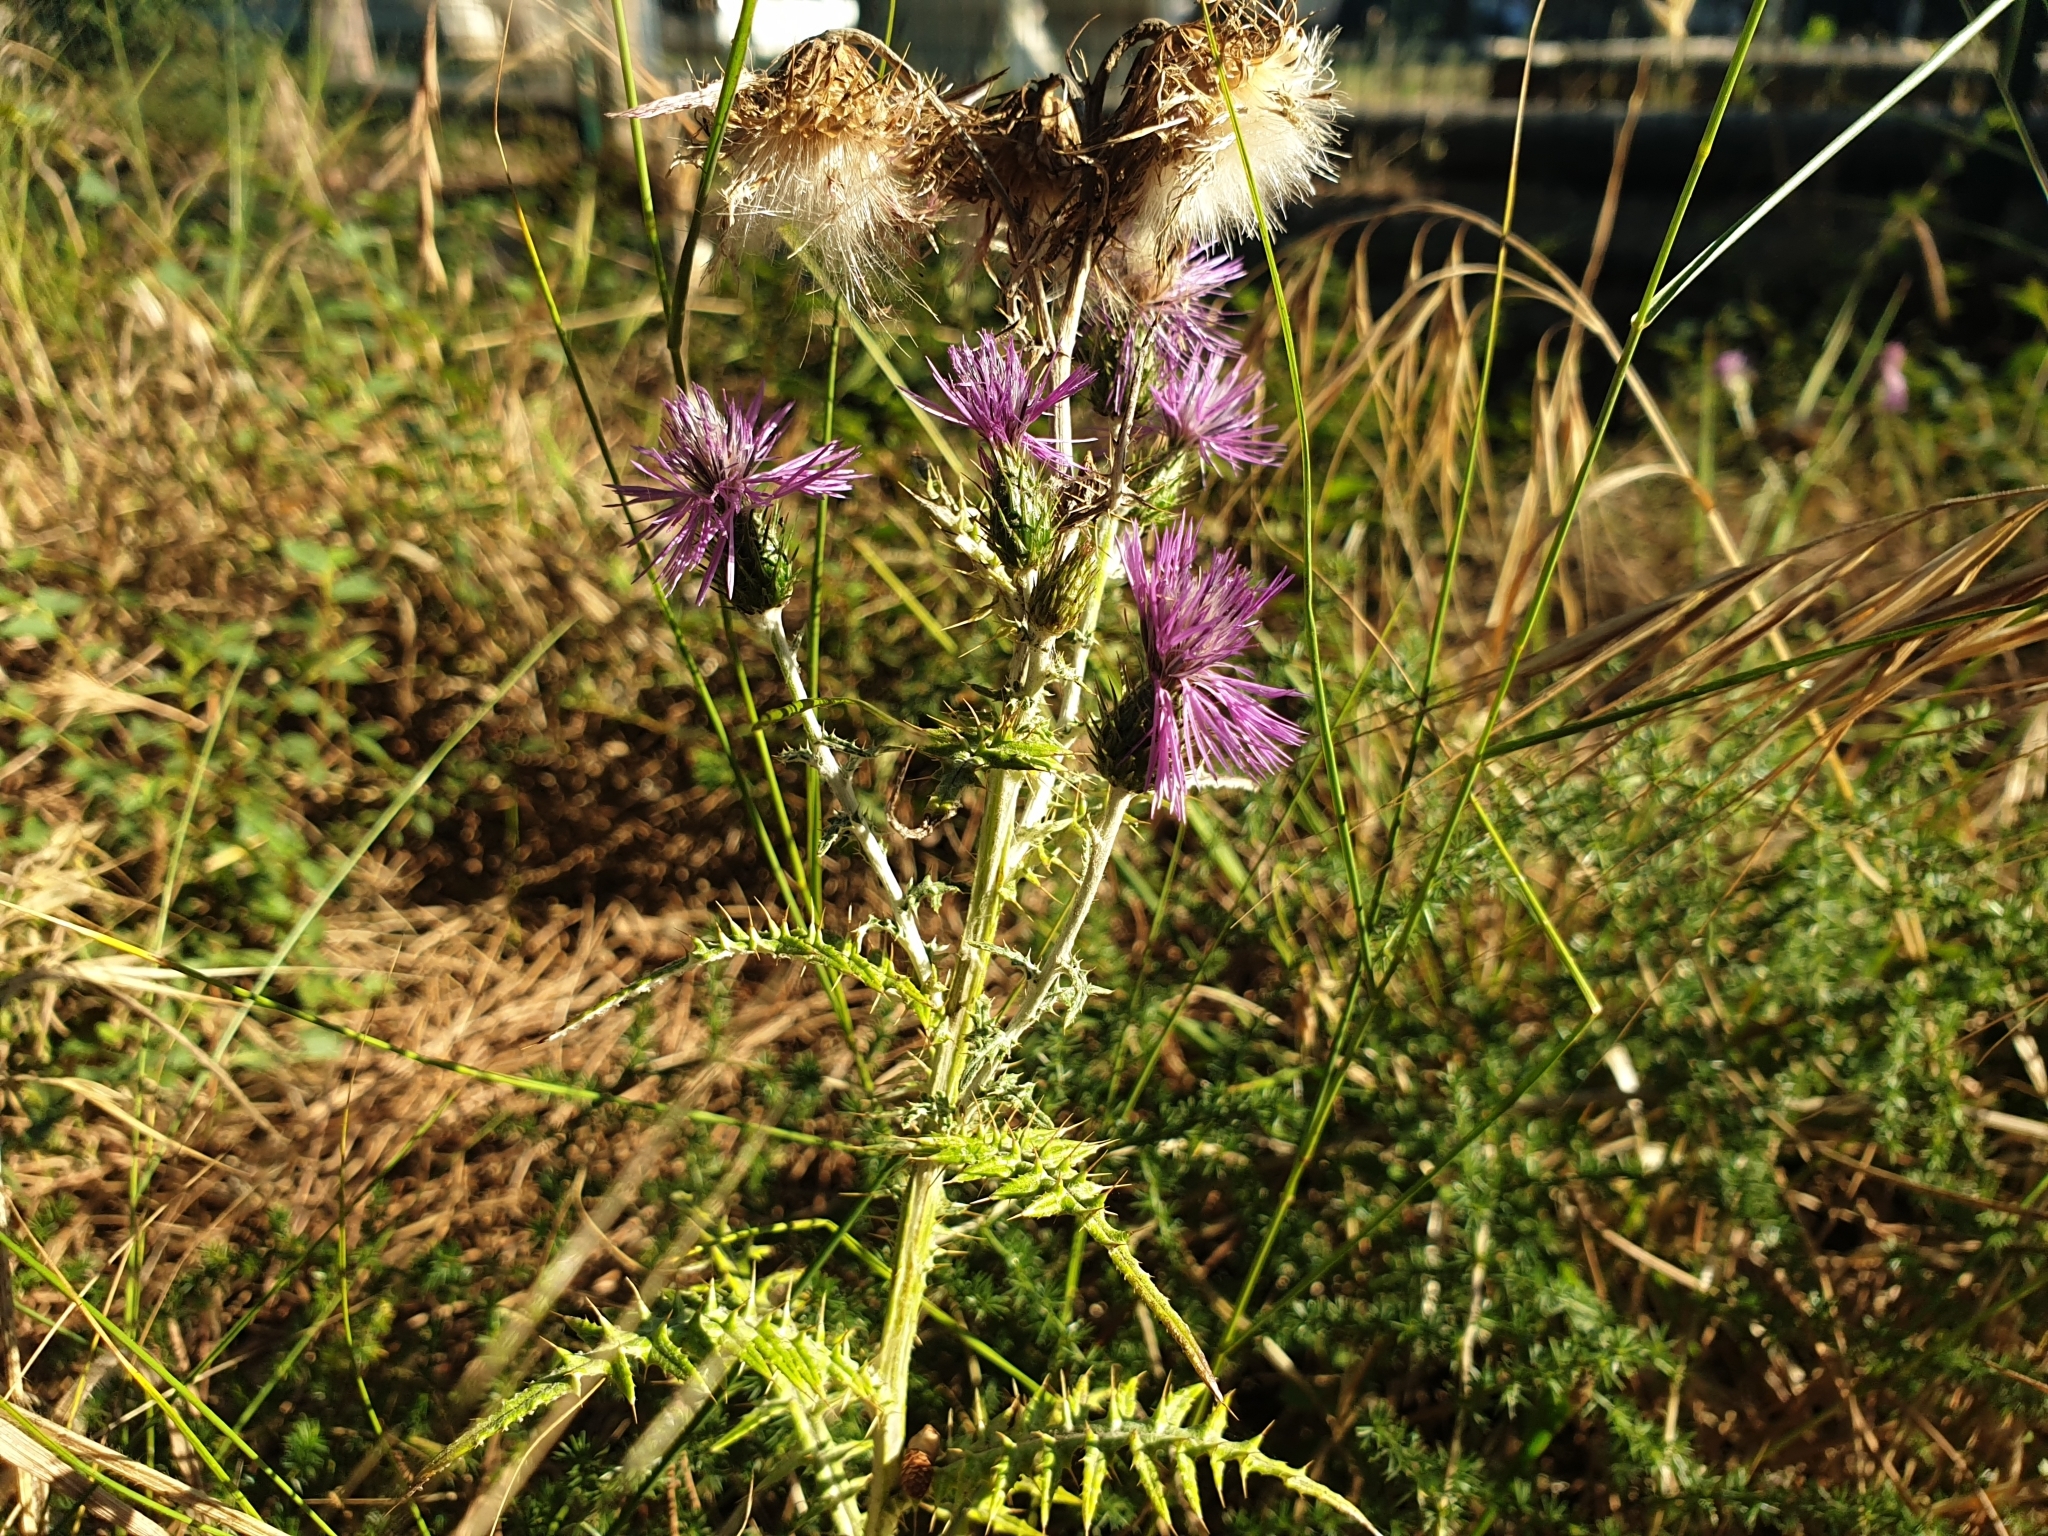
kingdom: Plantae
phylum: Tracheophyta
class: Magnoliopsida
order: Asterales
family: Asteraceae
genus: Galactites
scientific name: Galactites tomentosa
